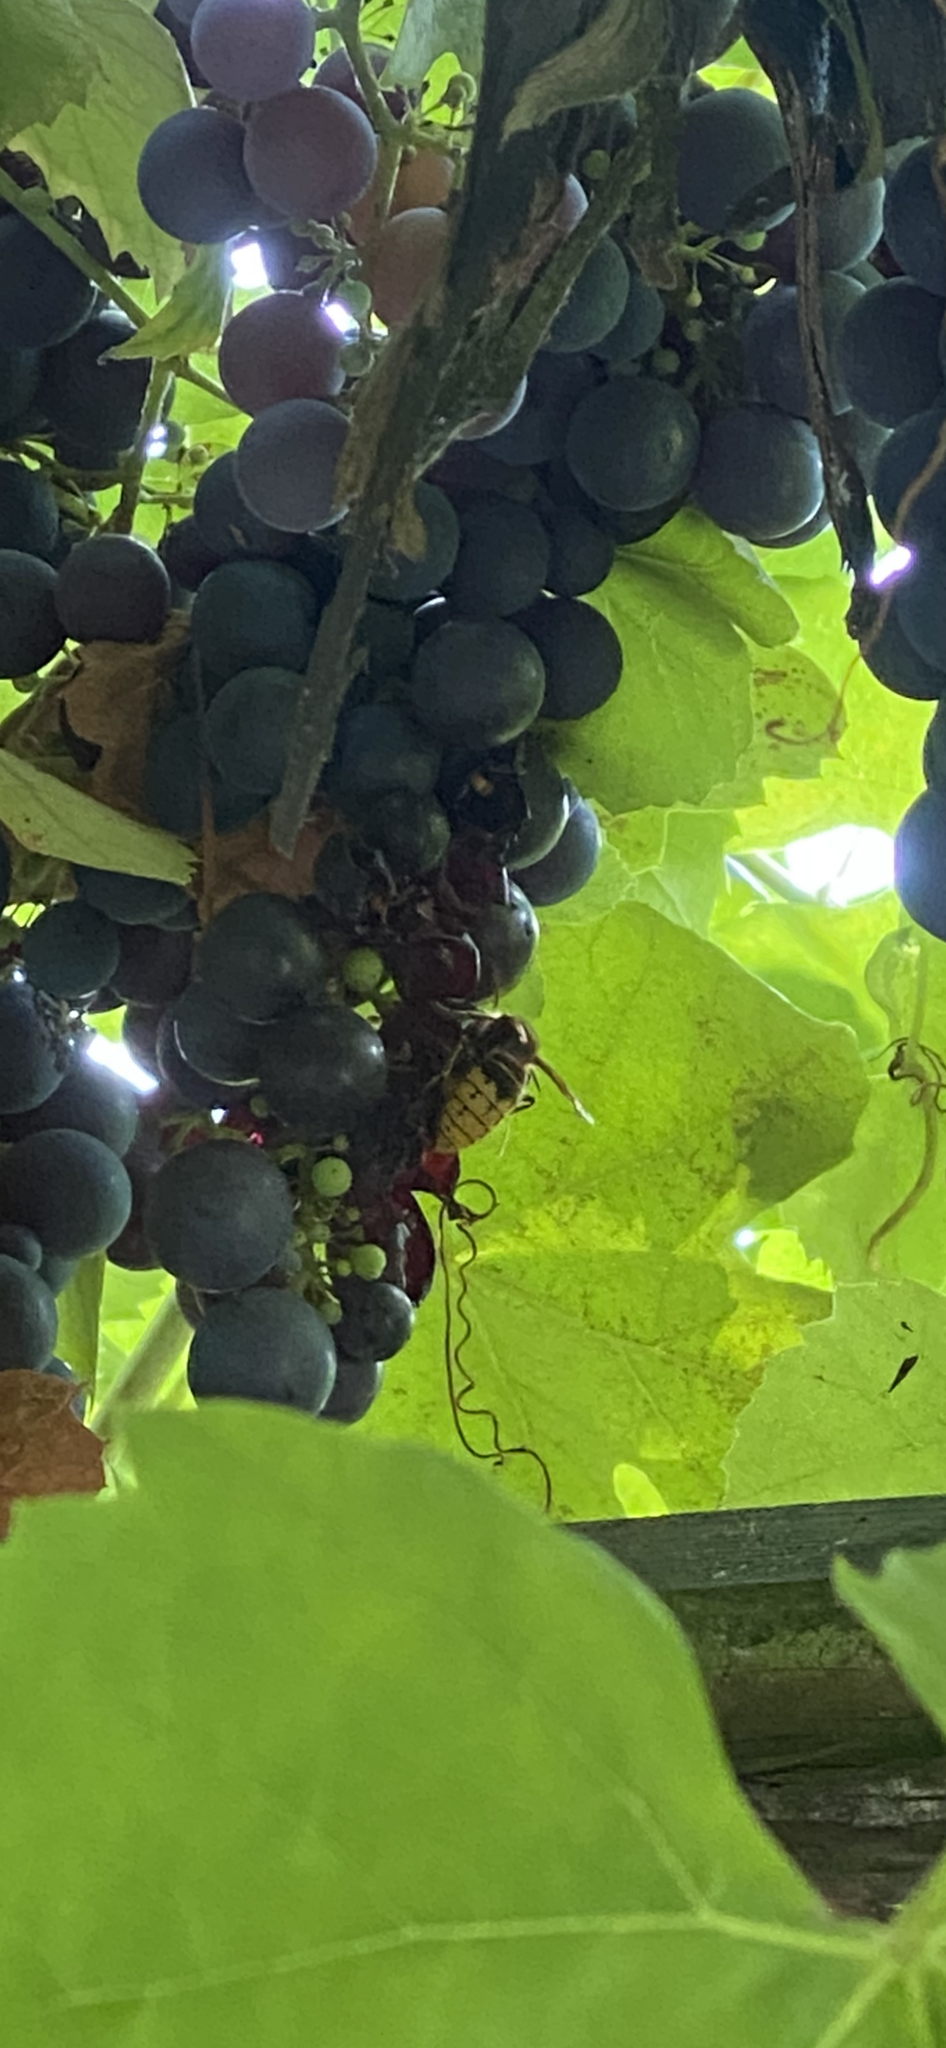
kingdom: Animalia
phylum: Arthropoda
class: Insecta
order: Hymenoptera
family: Vespidae
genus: Vespa
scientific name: Vespa crabro
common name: Hornet
